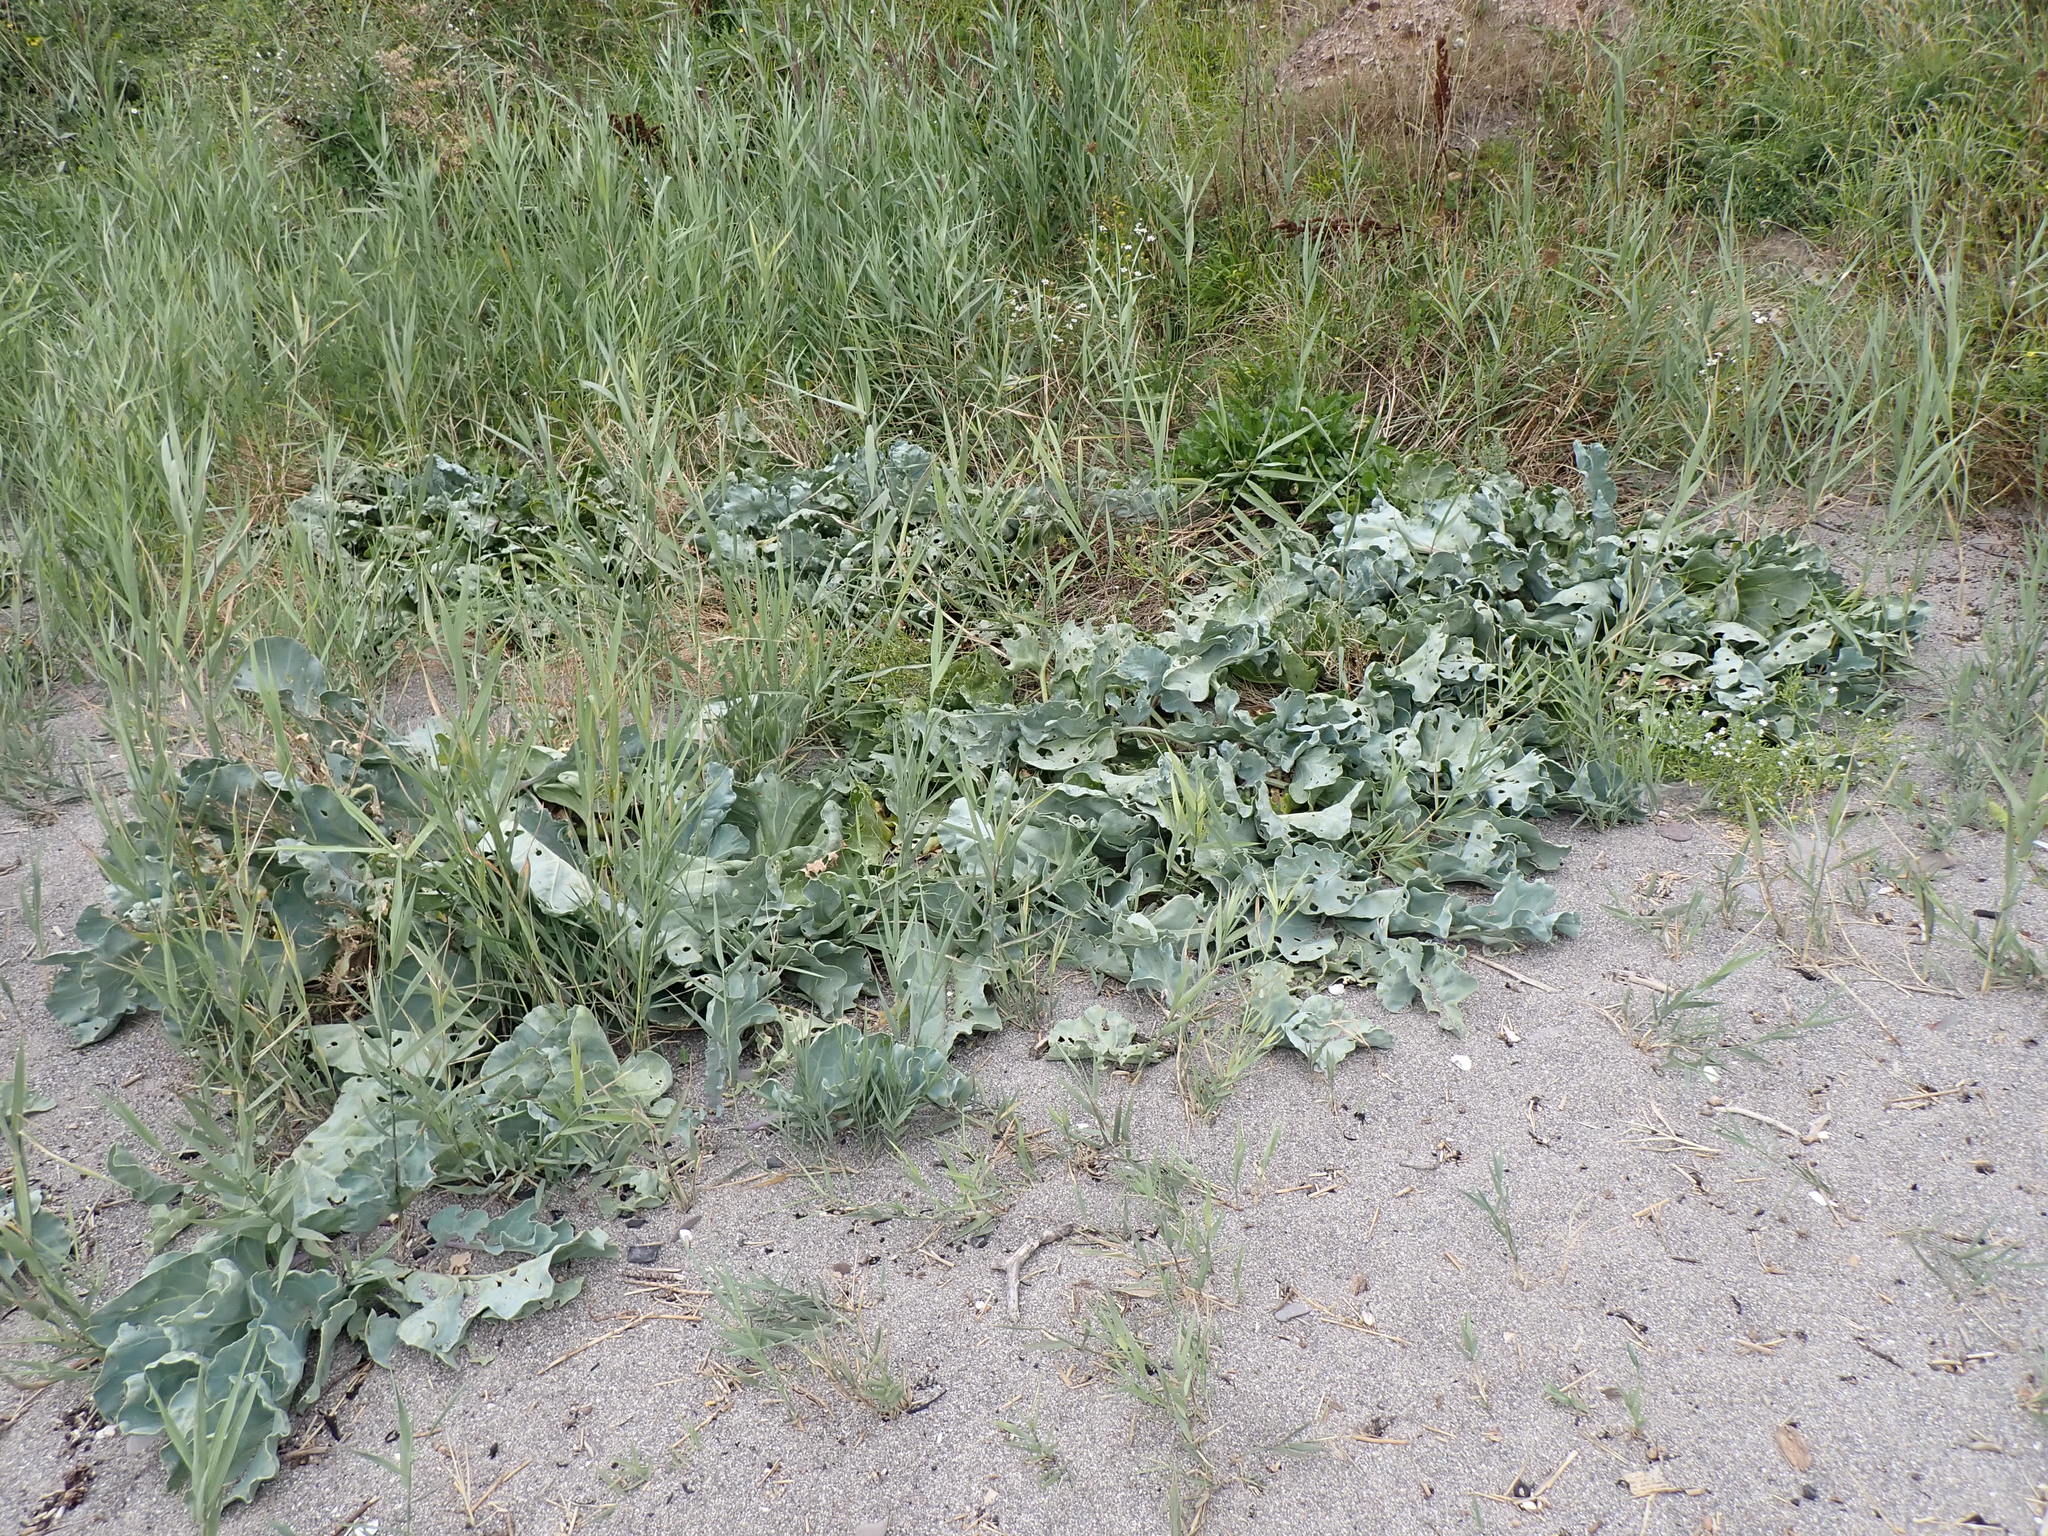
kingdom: Plantae
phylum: Tracheophyta
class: Magnoliopsida
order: Brassicales
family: Brassicaceae
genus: Crambe
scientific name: Crambe maritima
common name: Sea-kale
